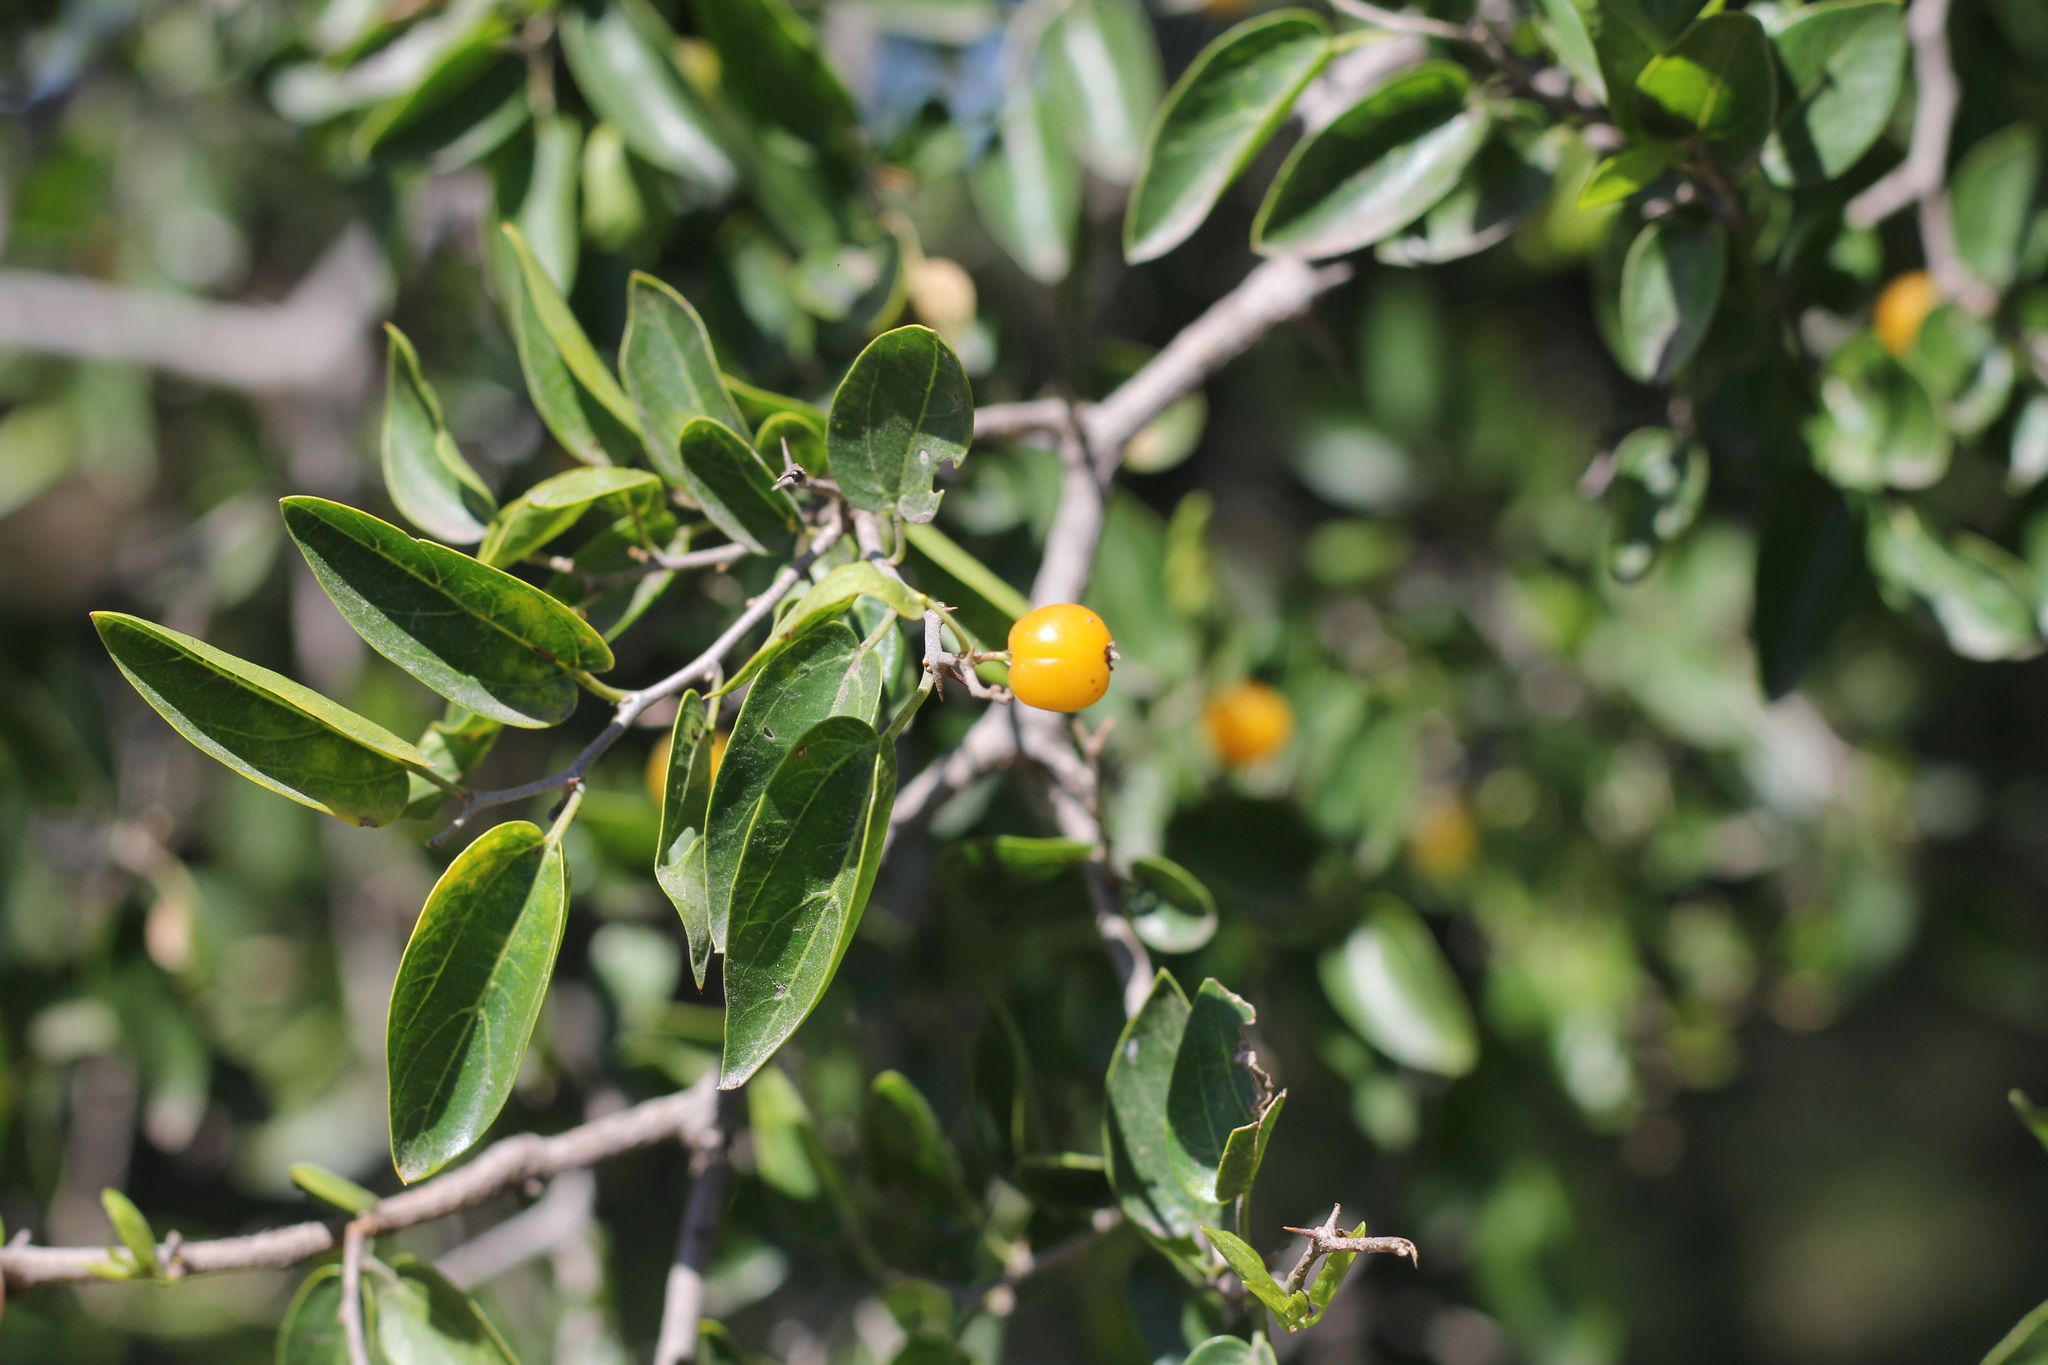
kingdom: Plantae
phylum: Tracheophyta
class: Magnoliopsida
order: Rosales
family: Cannabaceae
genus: Celtis
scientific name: Celtis tala
